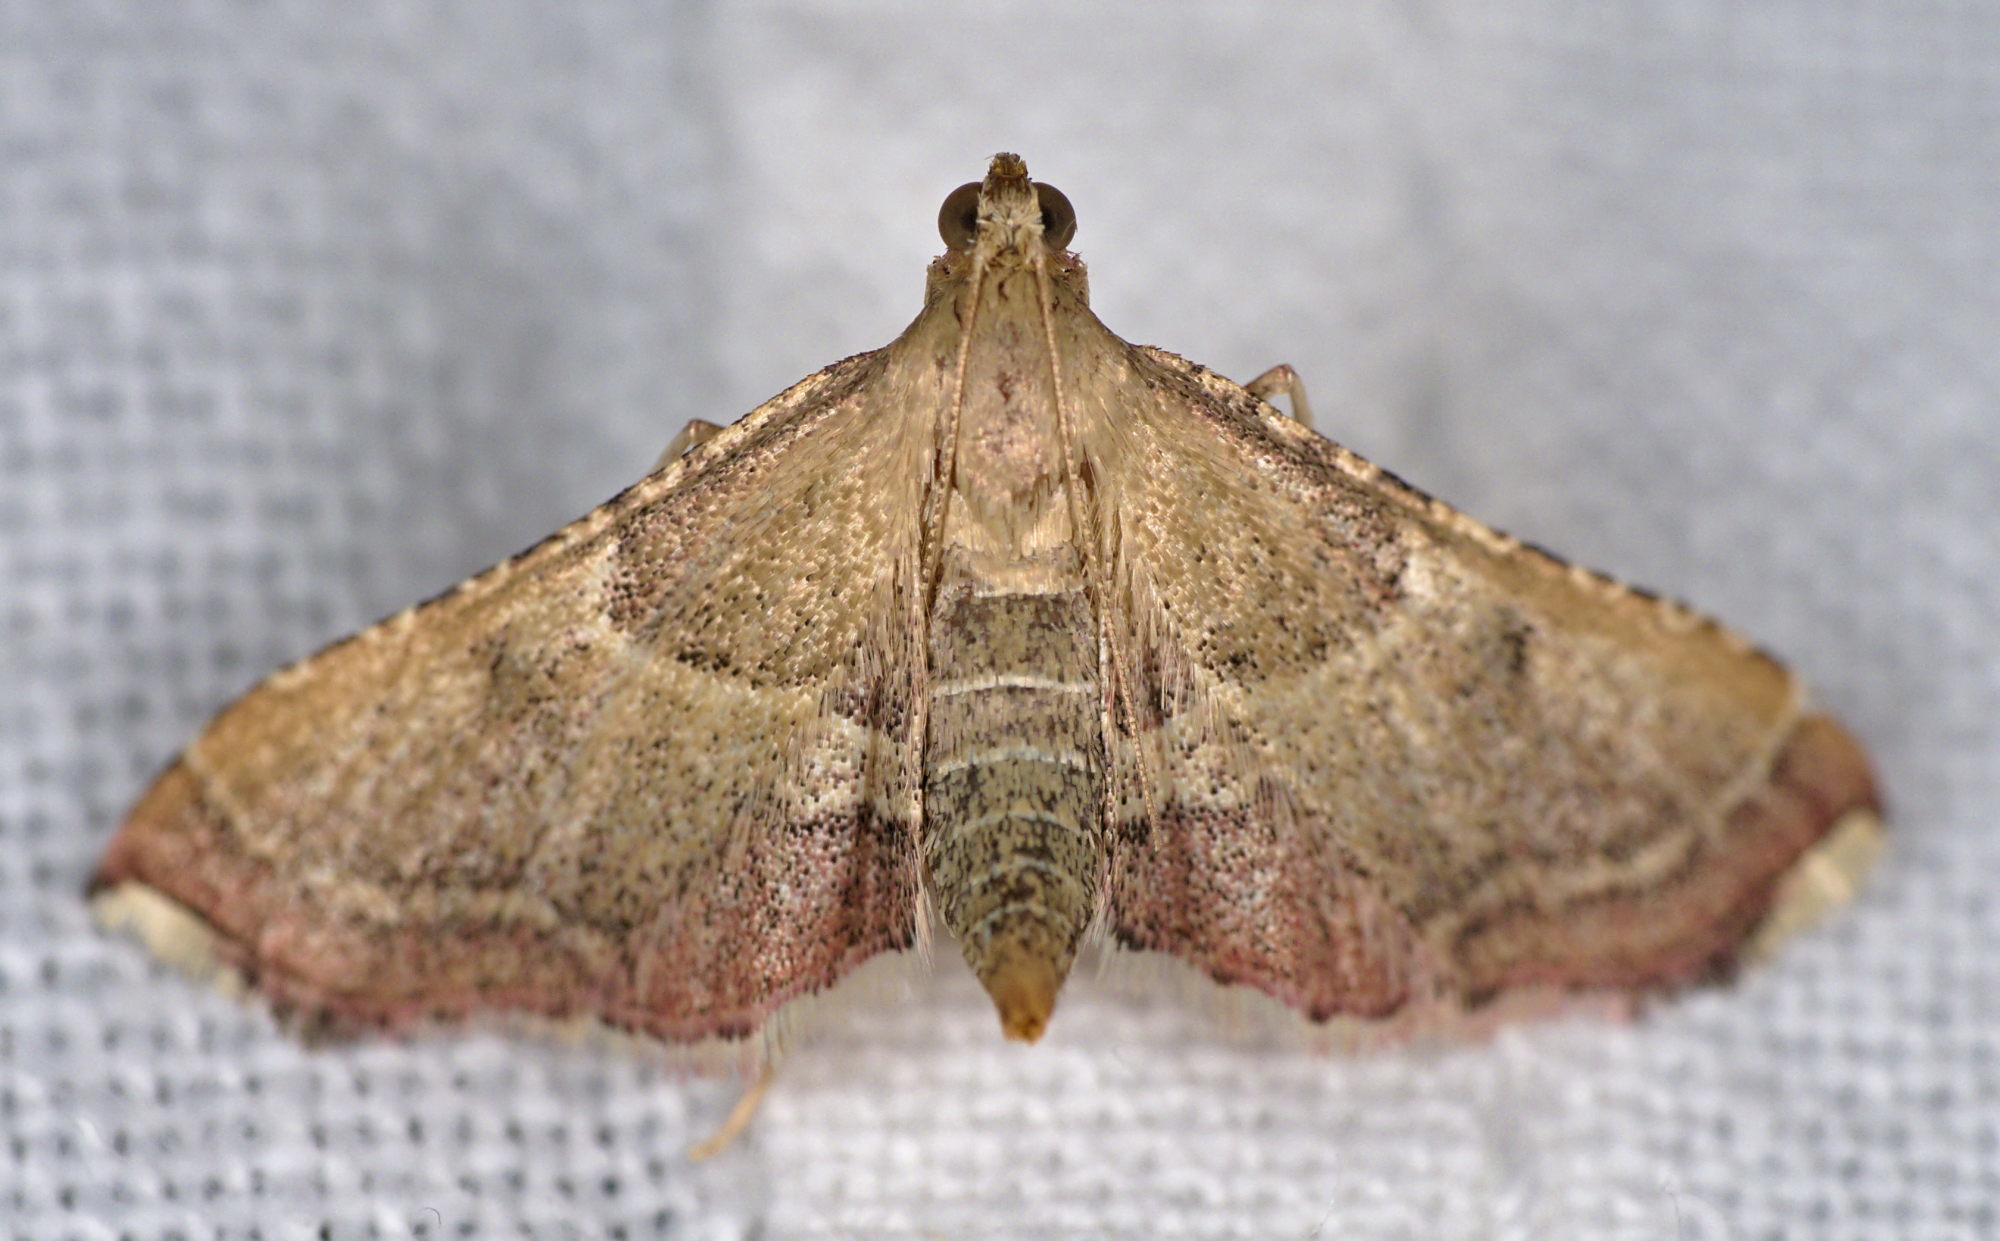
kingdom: Animalia
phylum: Arthropoda
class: Insecta
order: Lepidoptera
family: Pyralidae
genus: Endotricha
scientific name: Endotricha flammealis
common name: Rosy tabby
